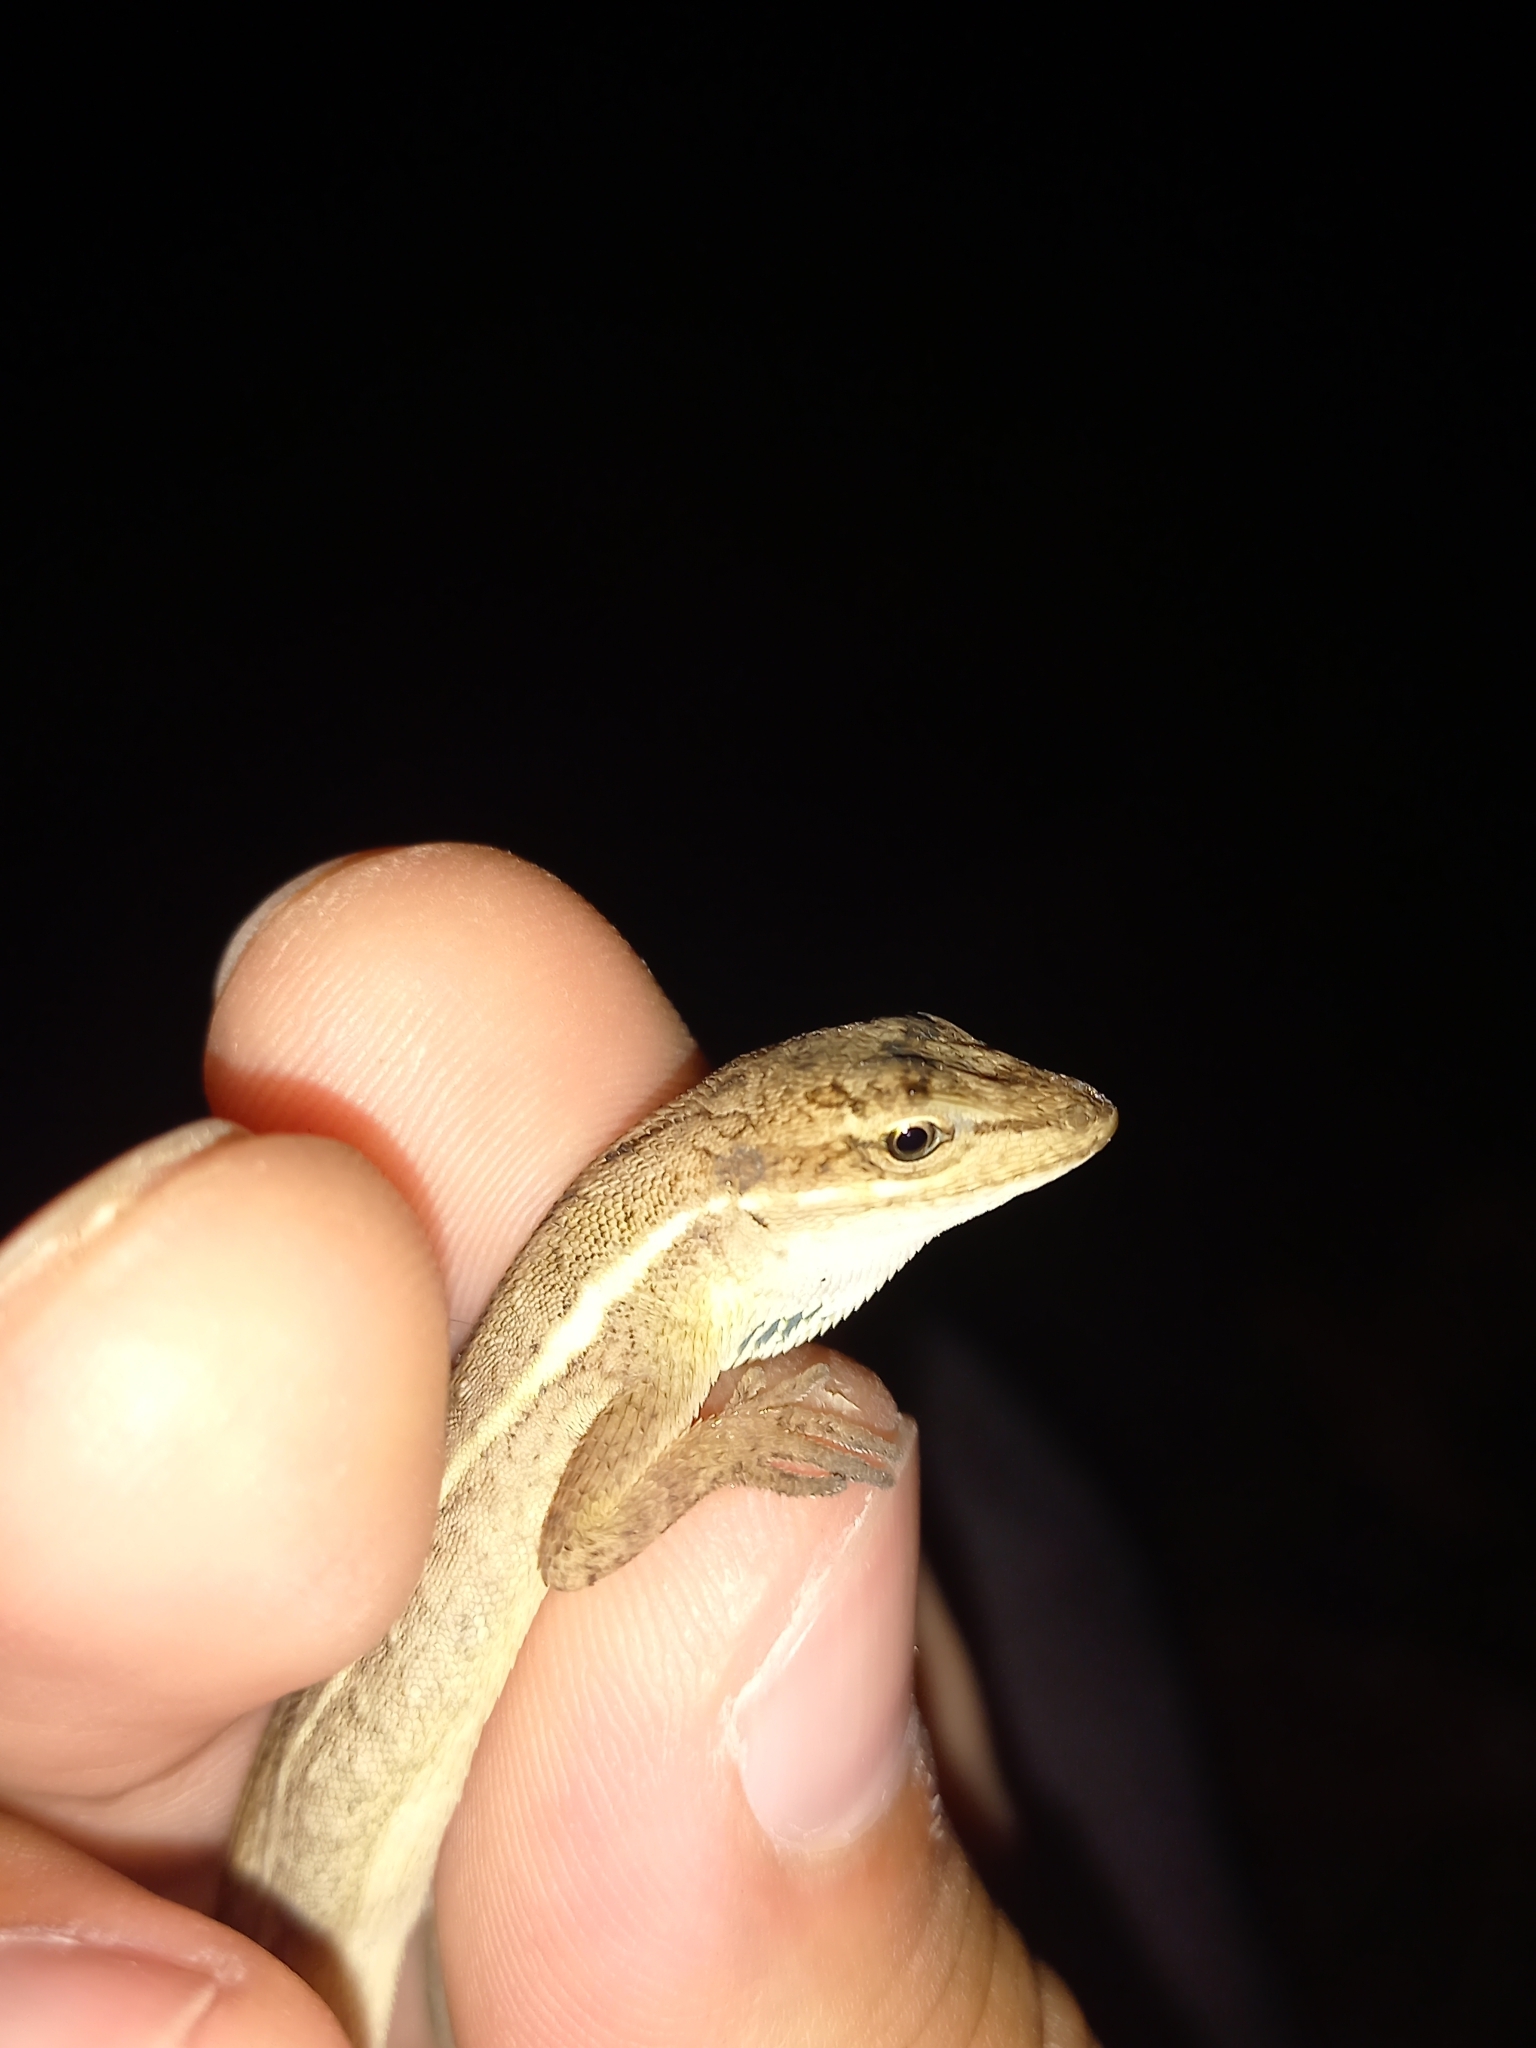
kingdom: Animalia
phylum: Chordata
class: Squamata
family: Dactyloidae
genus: Anolis
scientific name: Anolis auratus
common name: Grass anole
